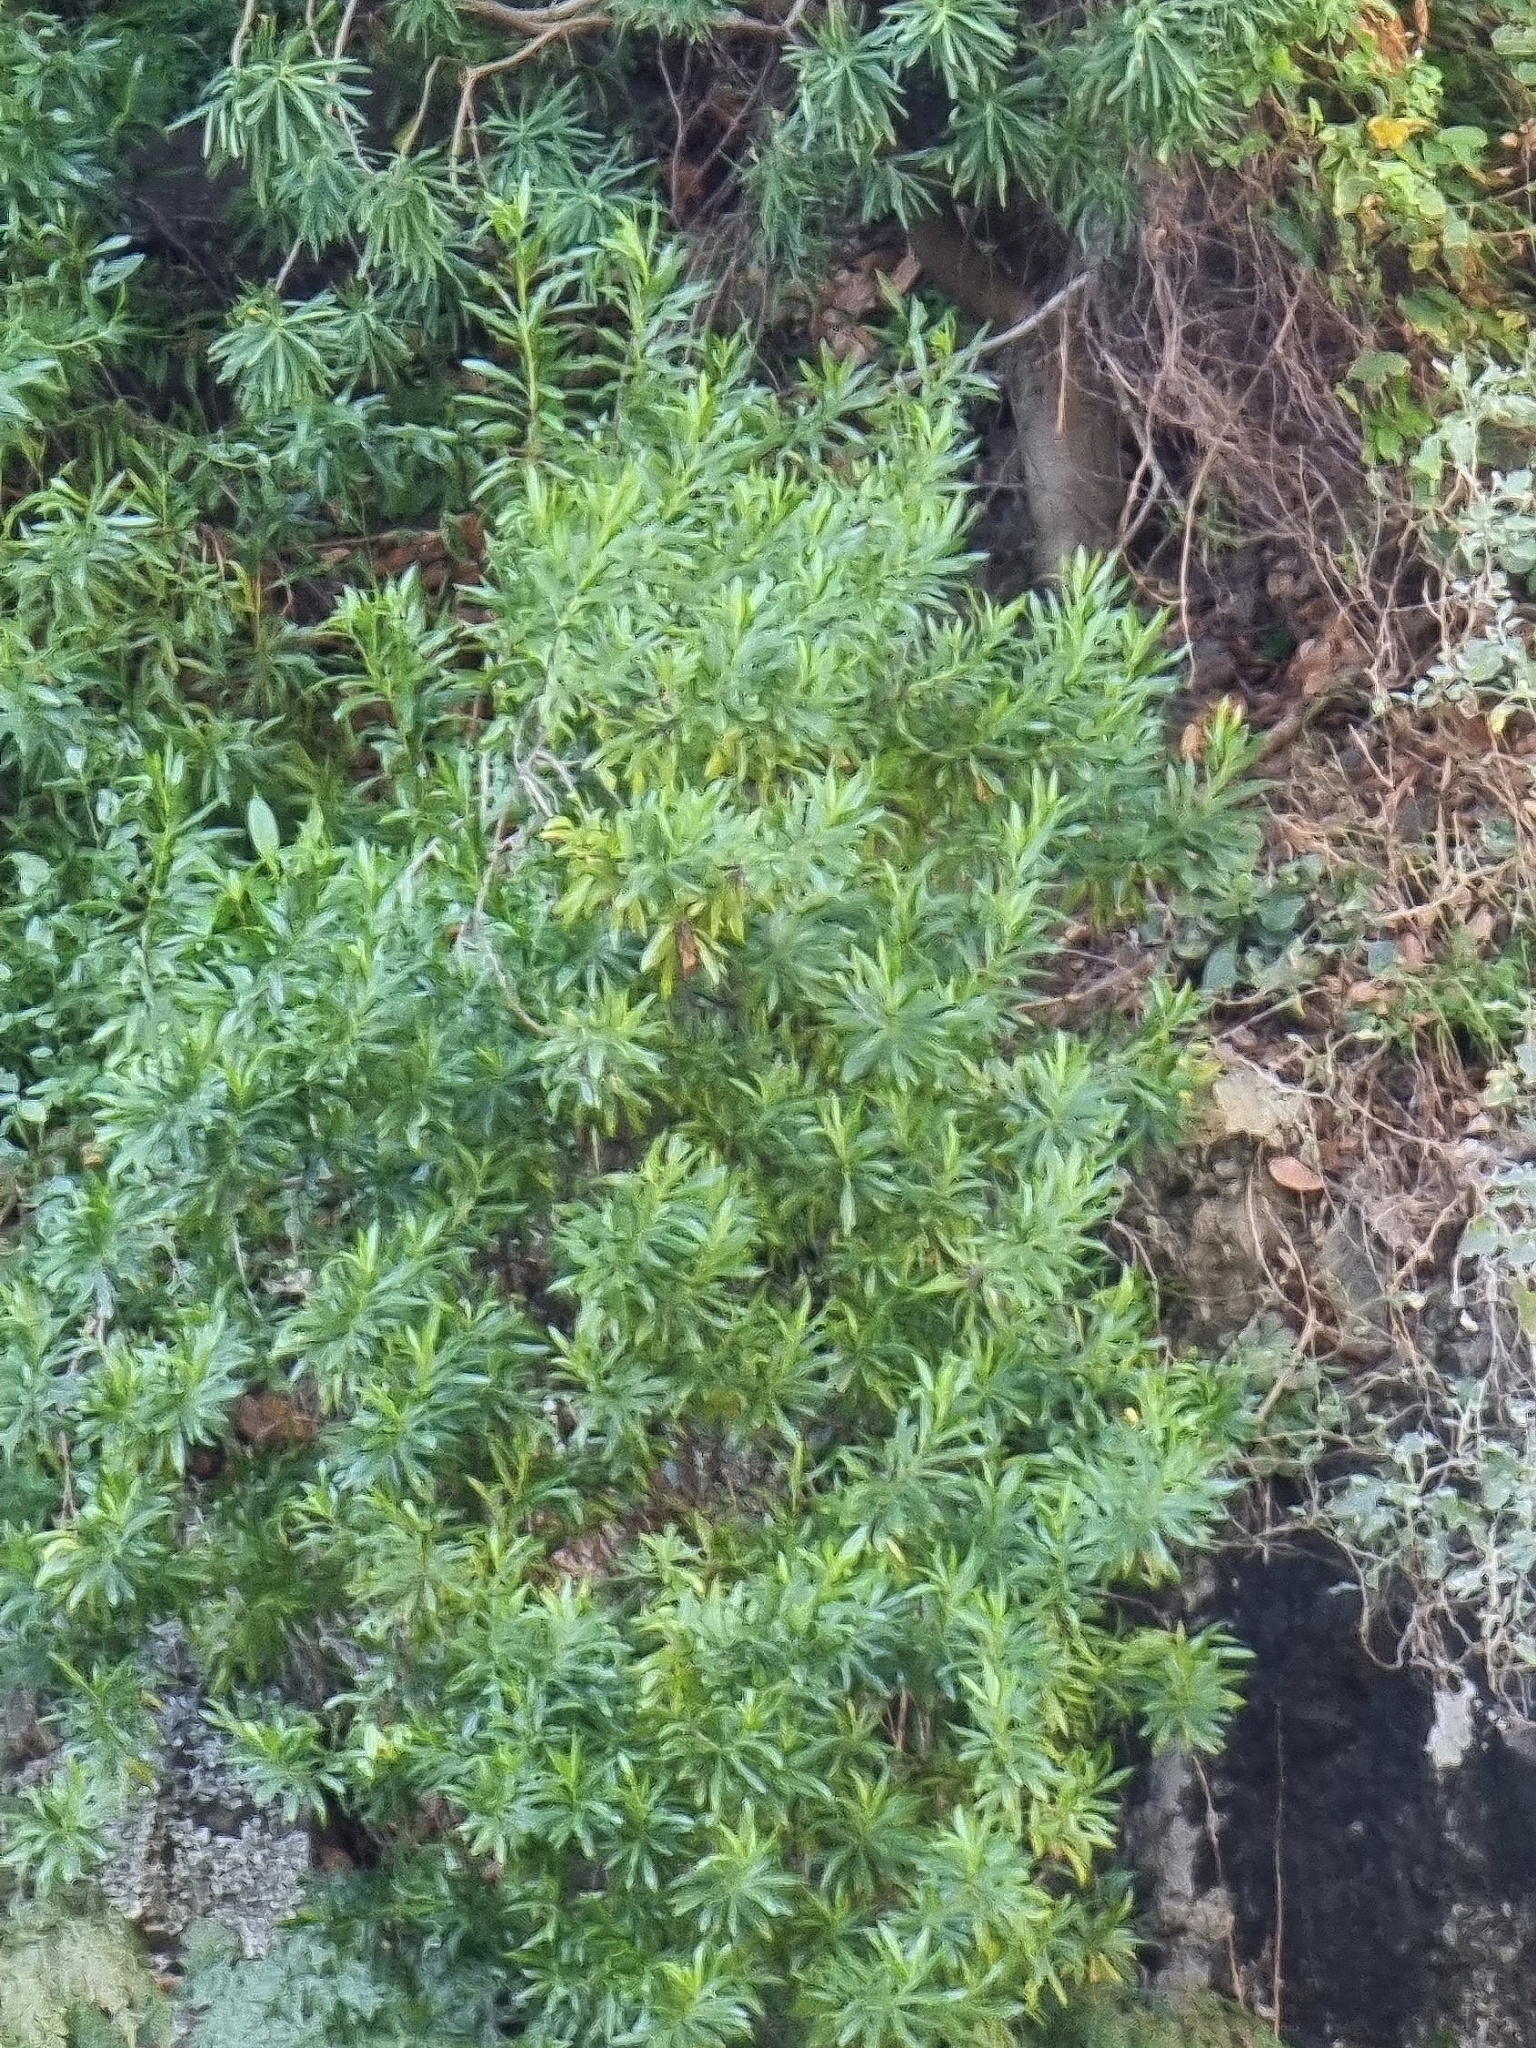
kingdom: Plantae
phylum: Tracheophyta
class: Magnoliopsida
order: Lamiales
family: Plantaginaceae
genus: Globularia
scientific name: Globularia salicina
